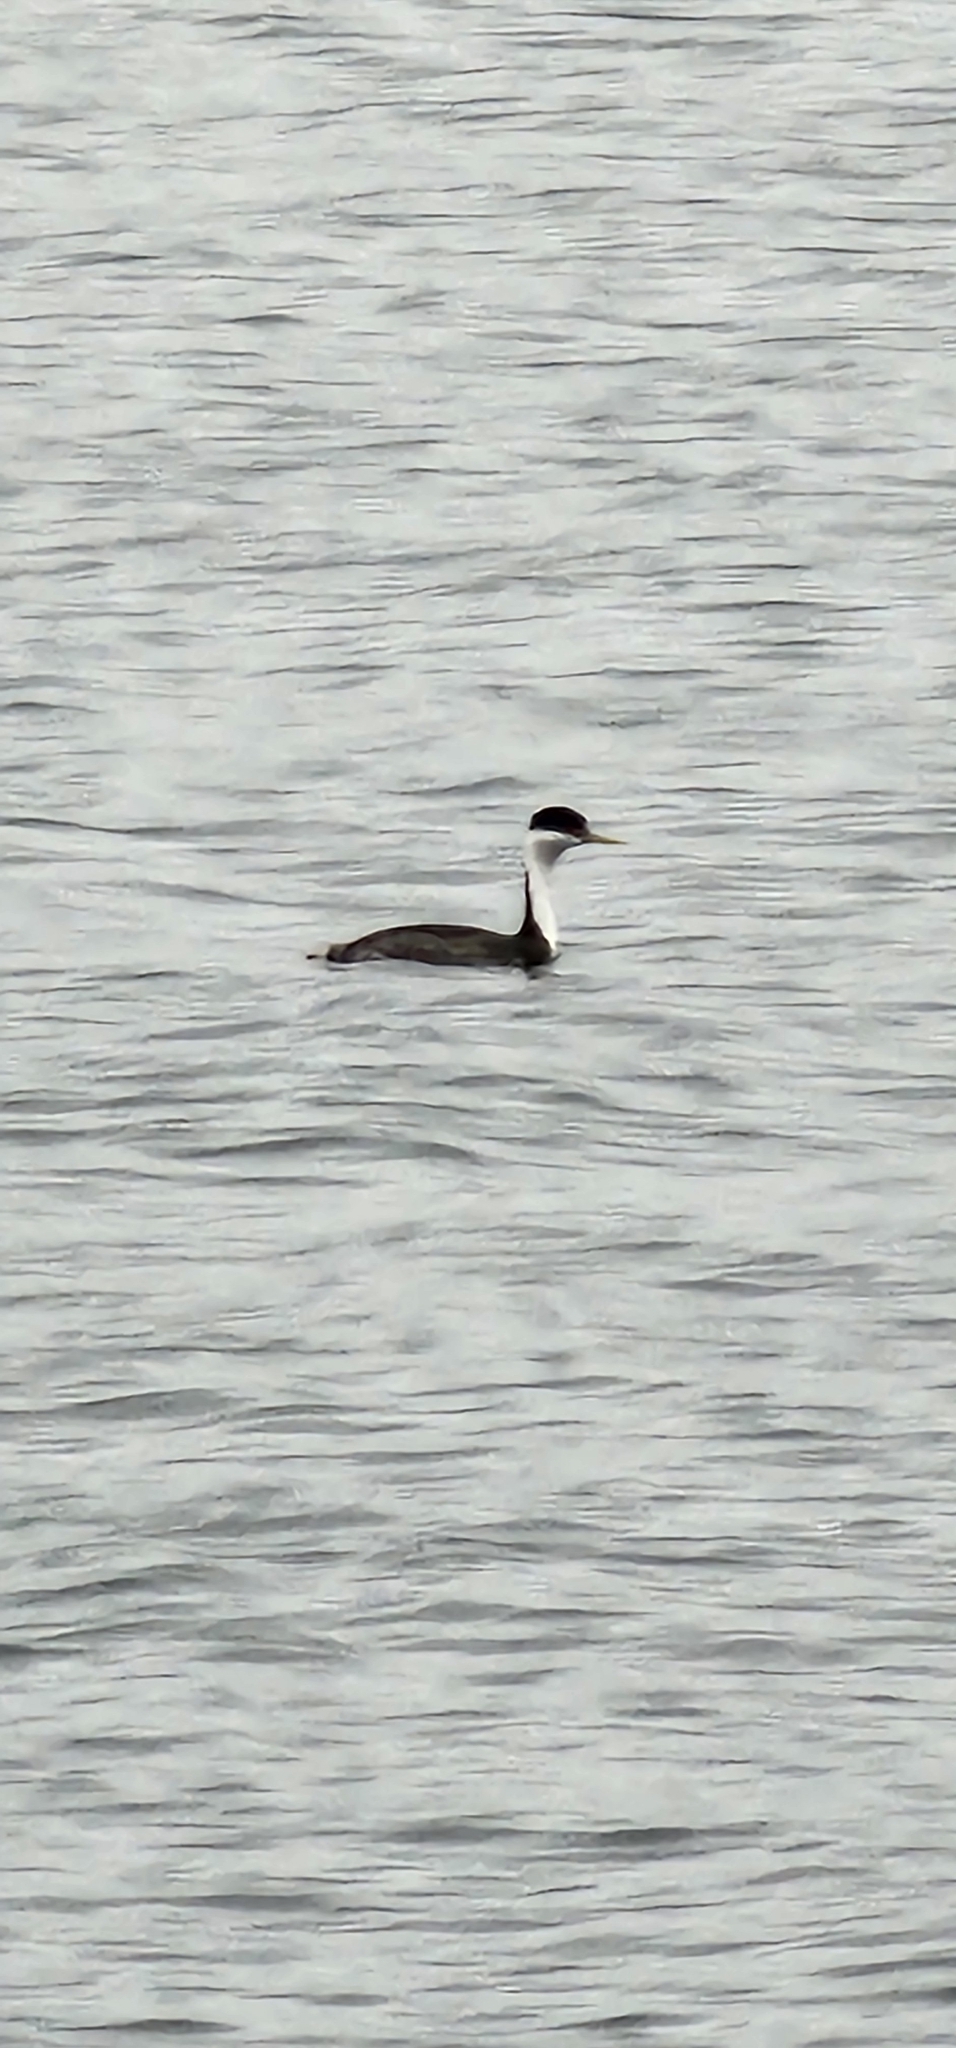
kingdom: Animalia
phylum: Chordata
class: Aves
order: Podicipediformes
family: Podicipedidae
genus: Aechmophorus
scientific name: Aechmophorus occidentalis
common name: Western grebe
